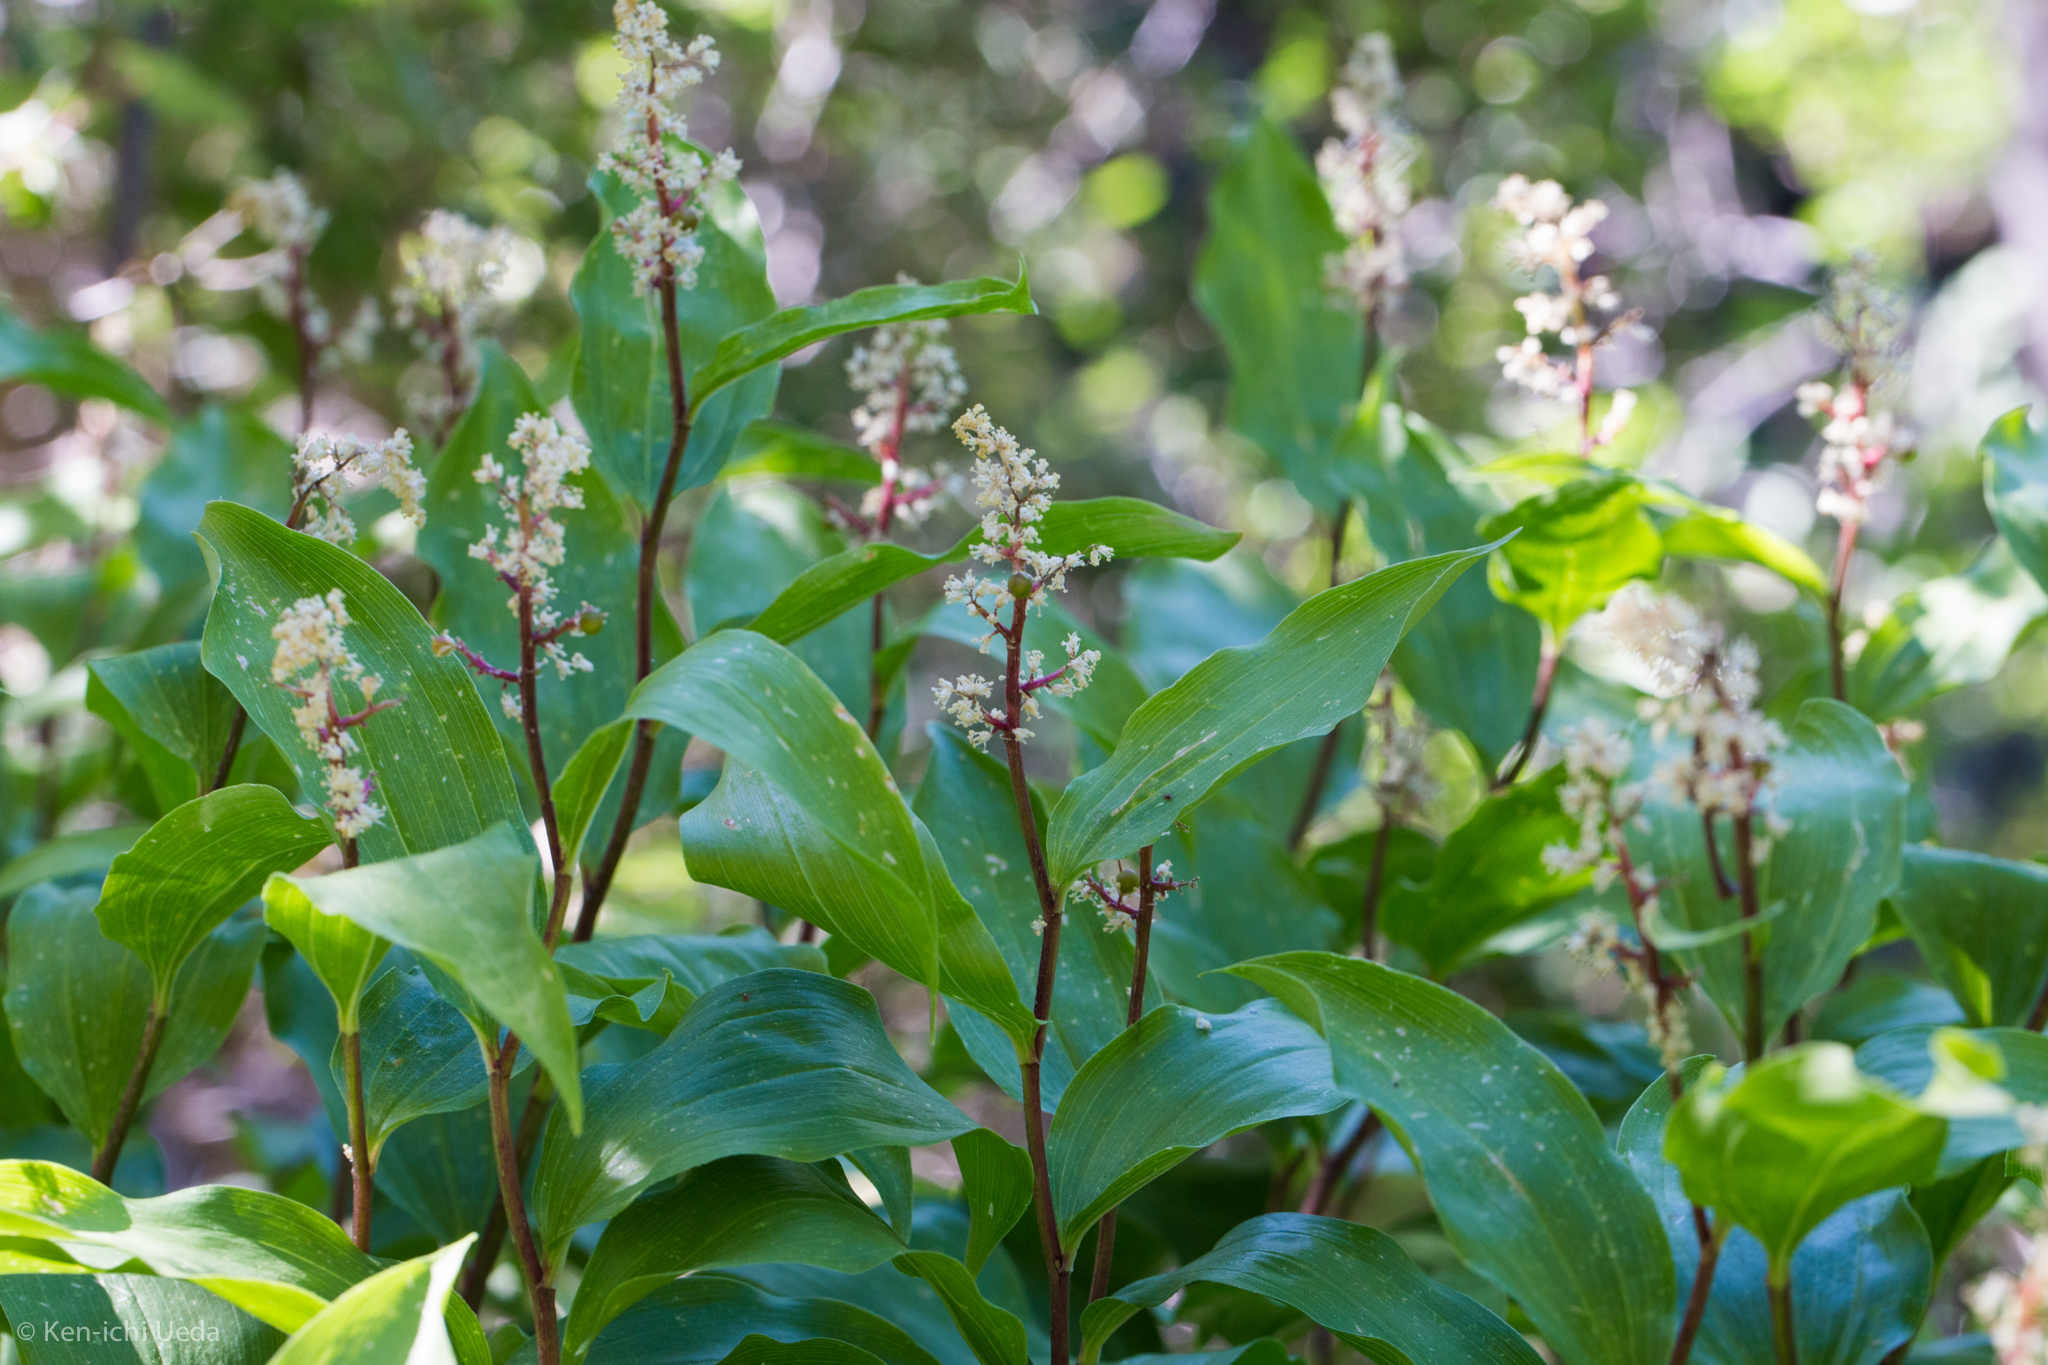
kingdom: Plantae
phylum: Tracheophyta
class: Liliopsida
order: Asparagales
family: Asparagaceae
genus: Maianthemum
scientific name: Maianthemum racemosum
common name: False spikenard
